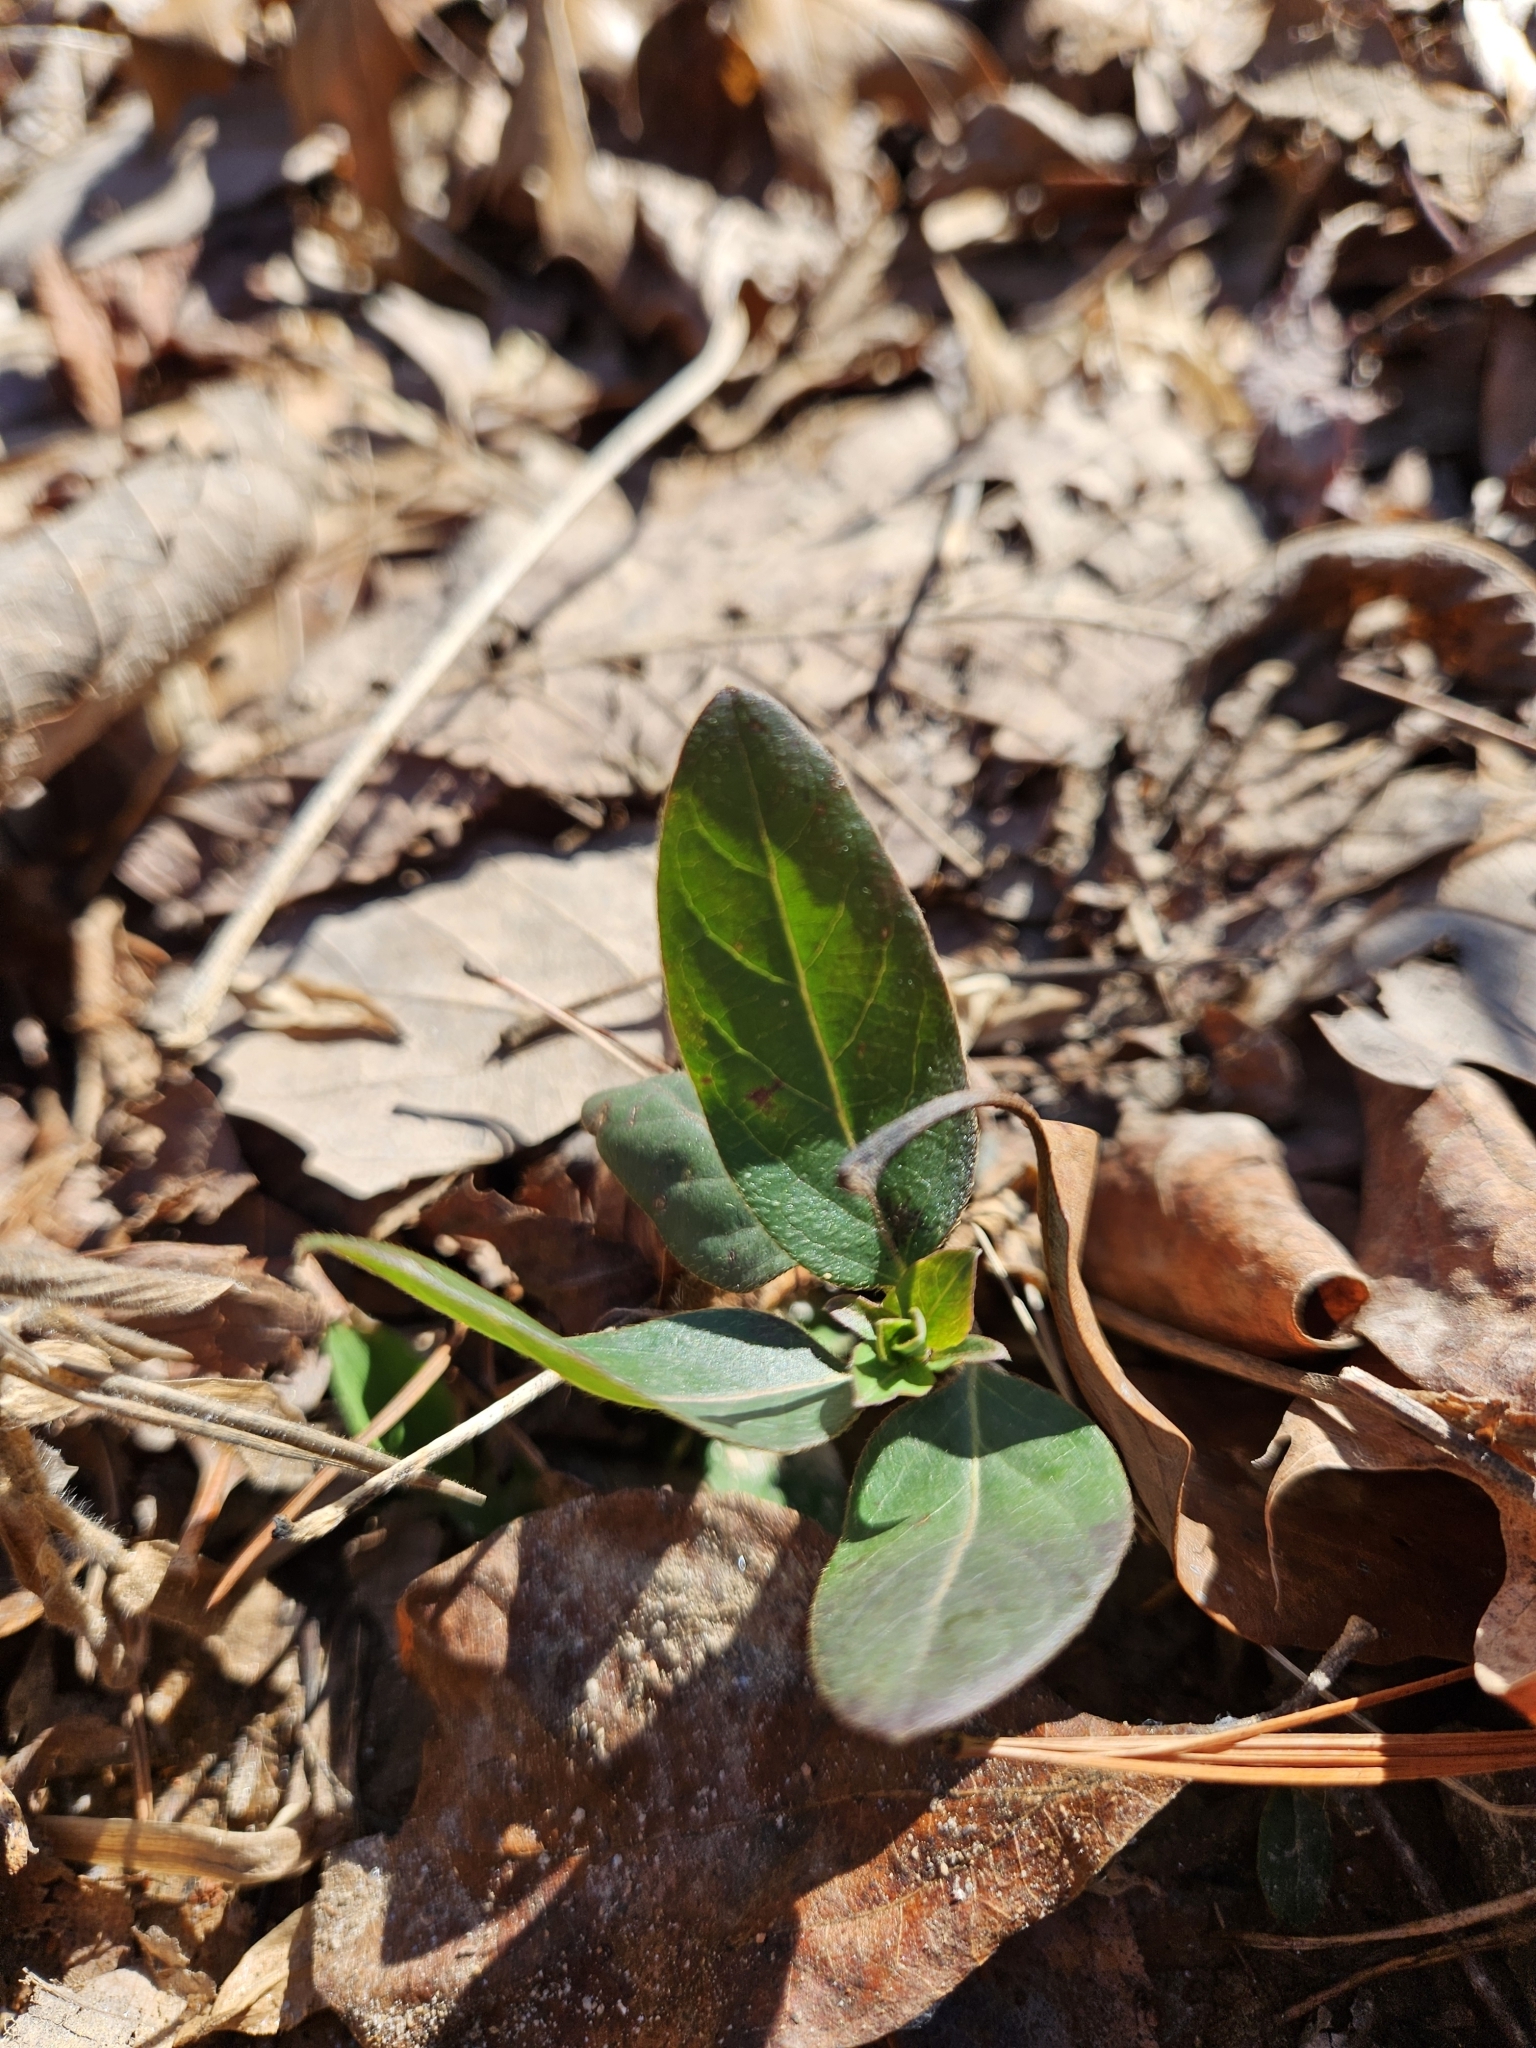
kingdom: Plantae
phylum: Tracheophyta
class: Magnoliopsida
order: Dipsacales
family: Caprifoliaceae
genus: Lonicera
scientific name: Lonicera japonica
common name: Japanese honeysuckle
